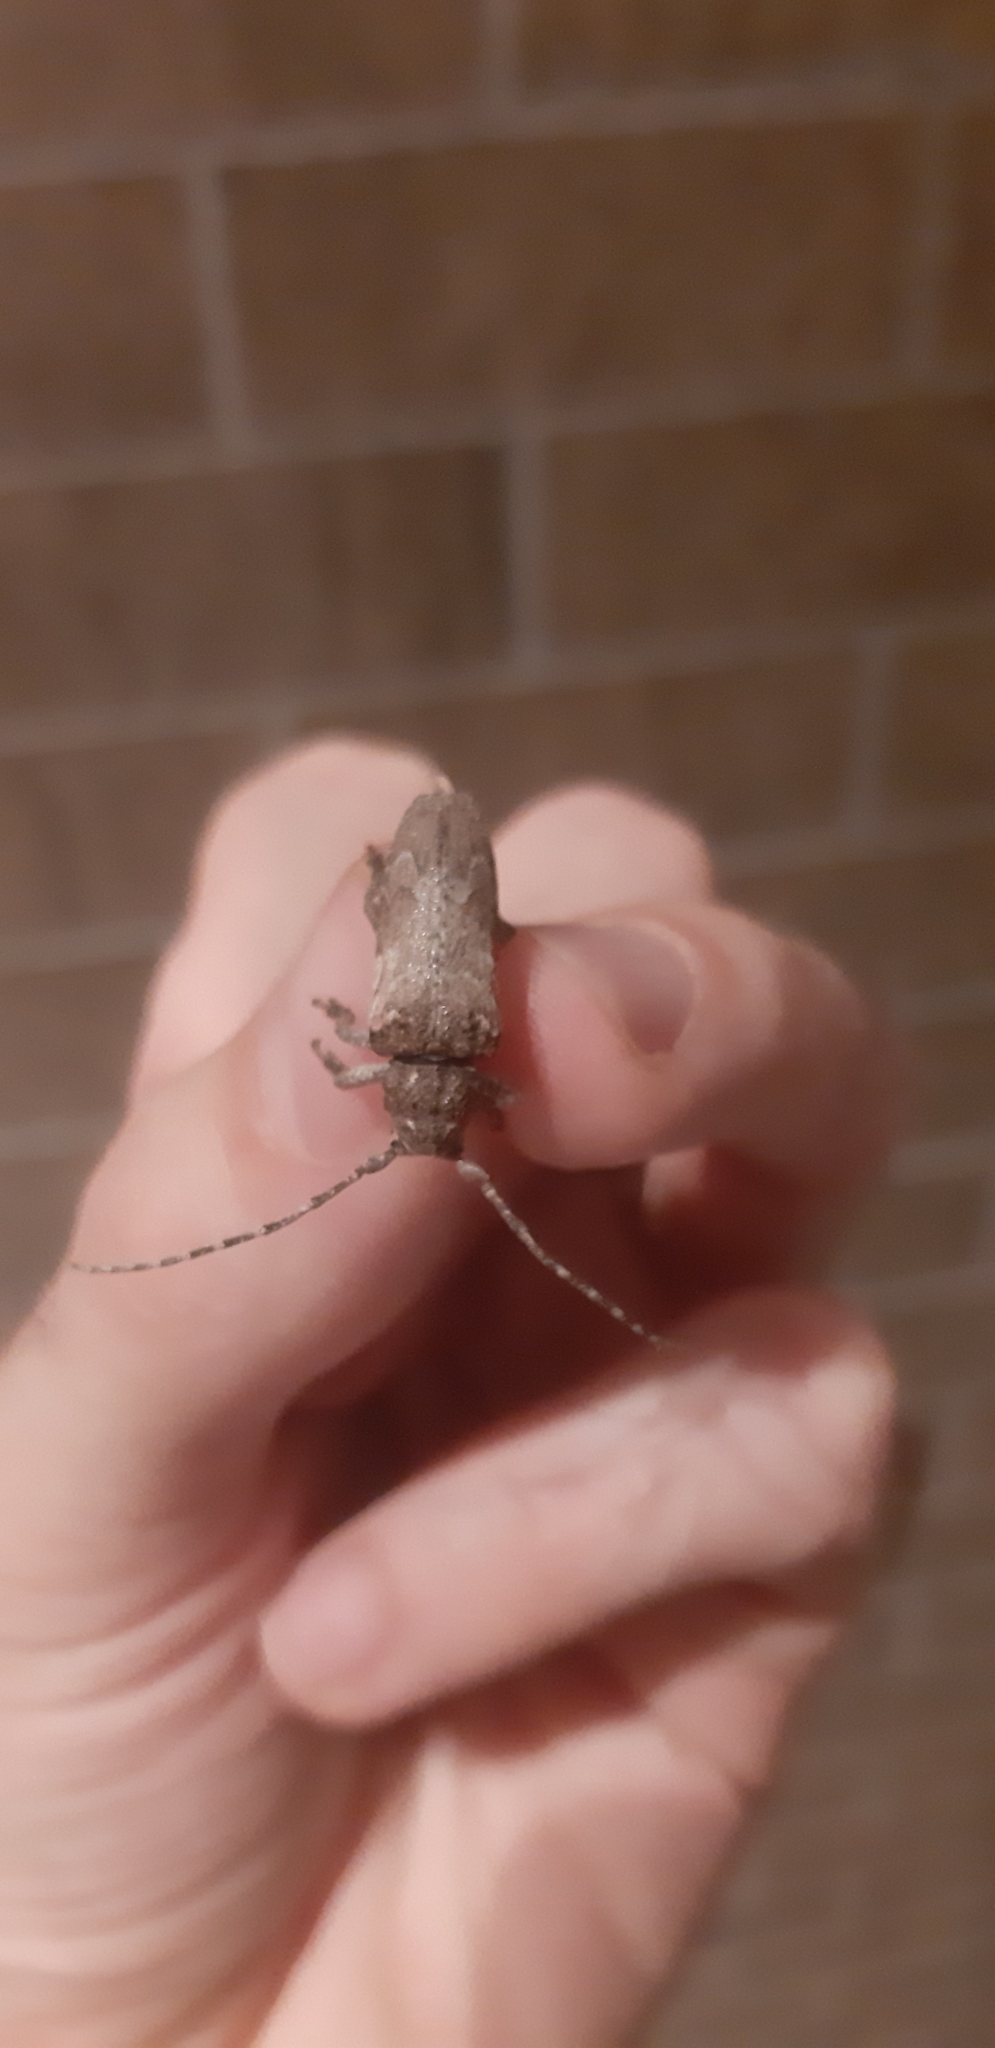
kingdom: Animalia
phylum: Arthropoda
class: Insecta
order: Coleoptera
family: Cerambycidae
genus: Niphona
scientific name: Niphona picticornis
